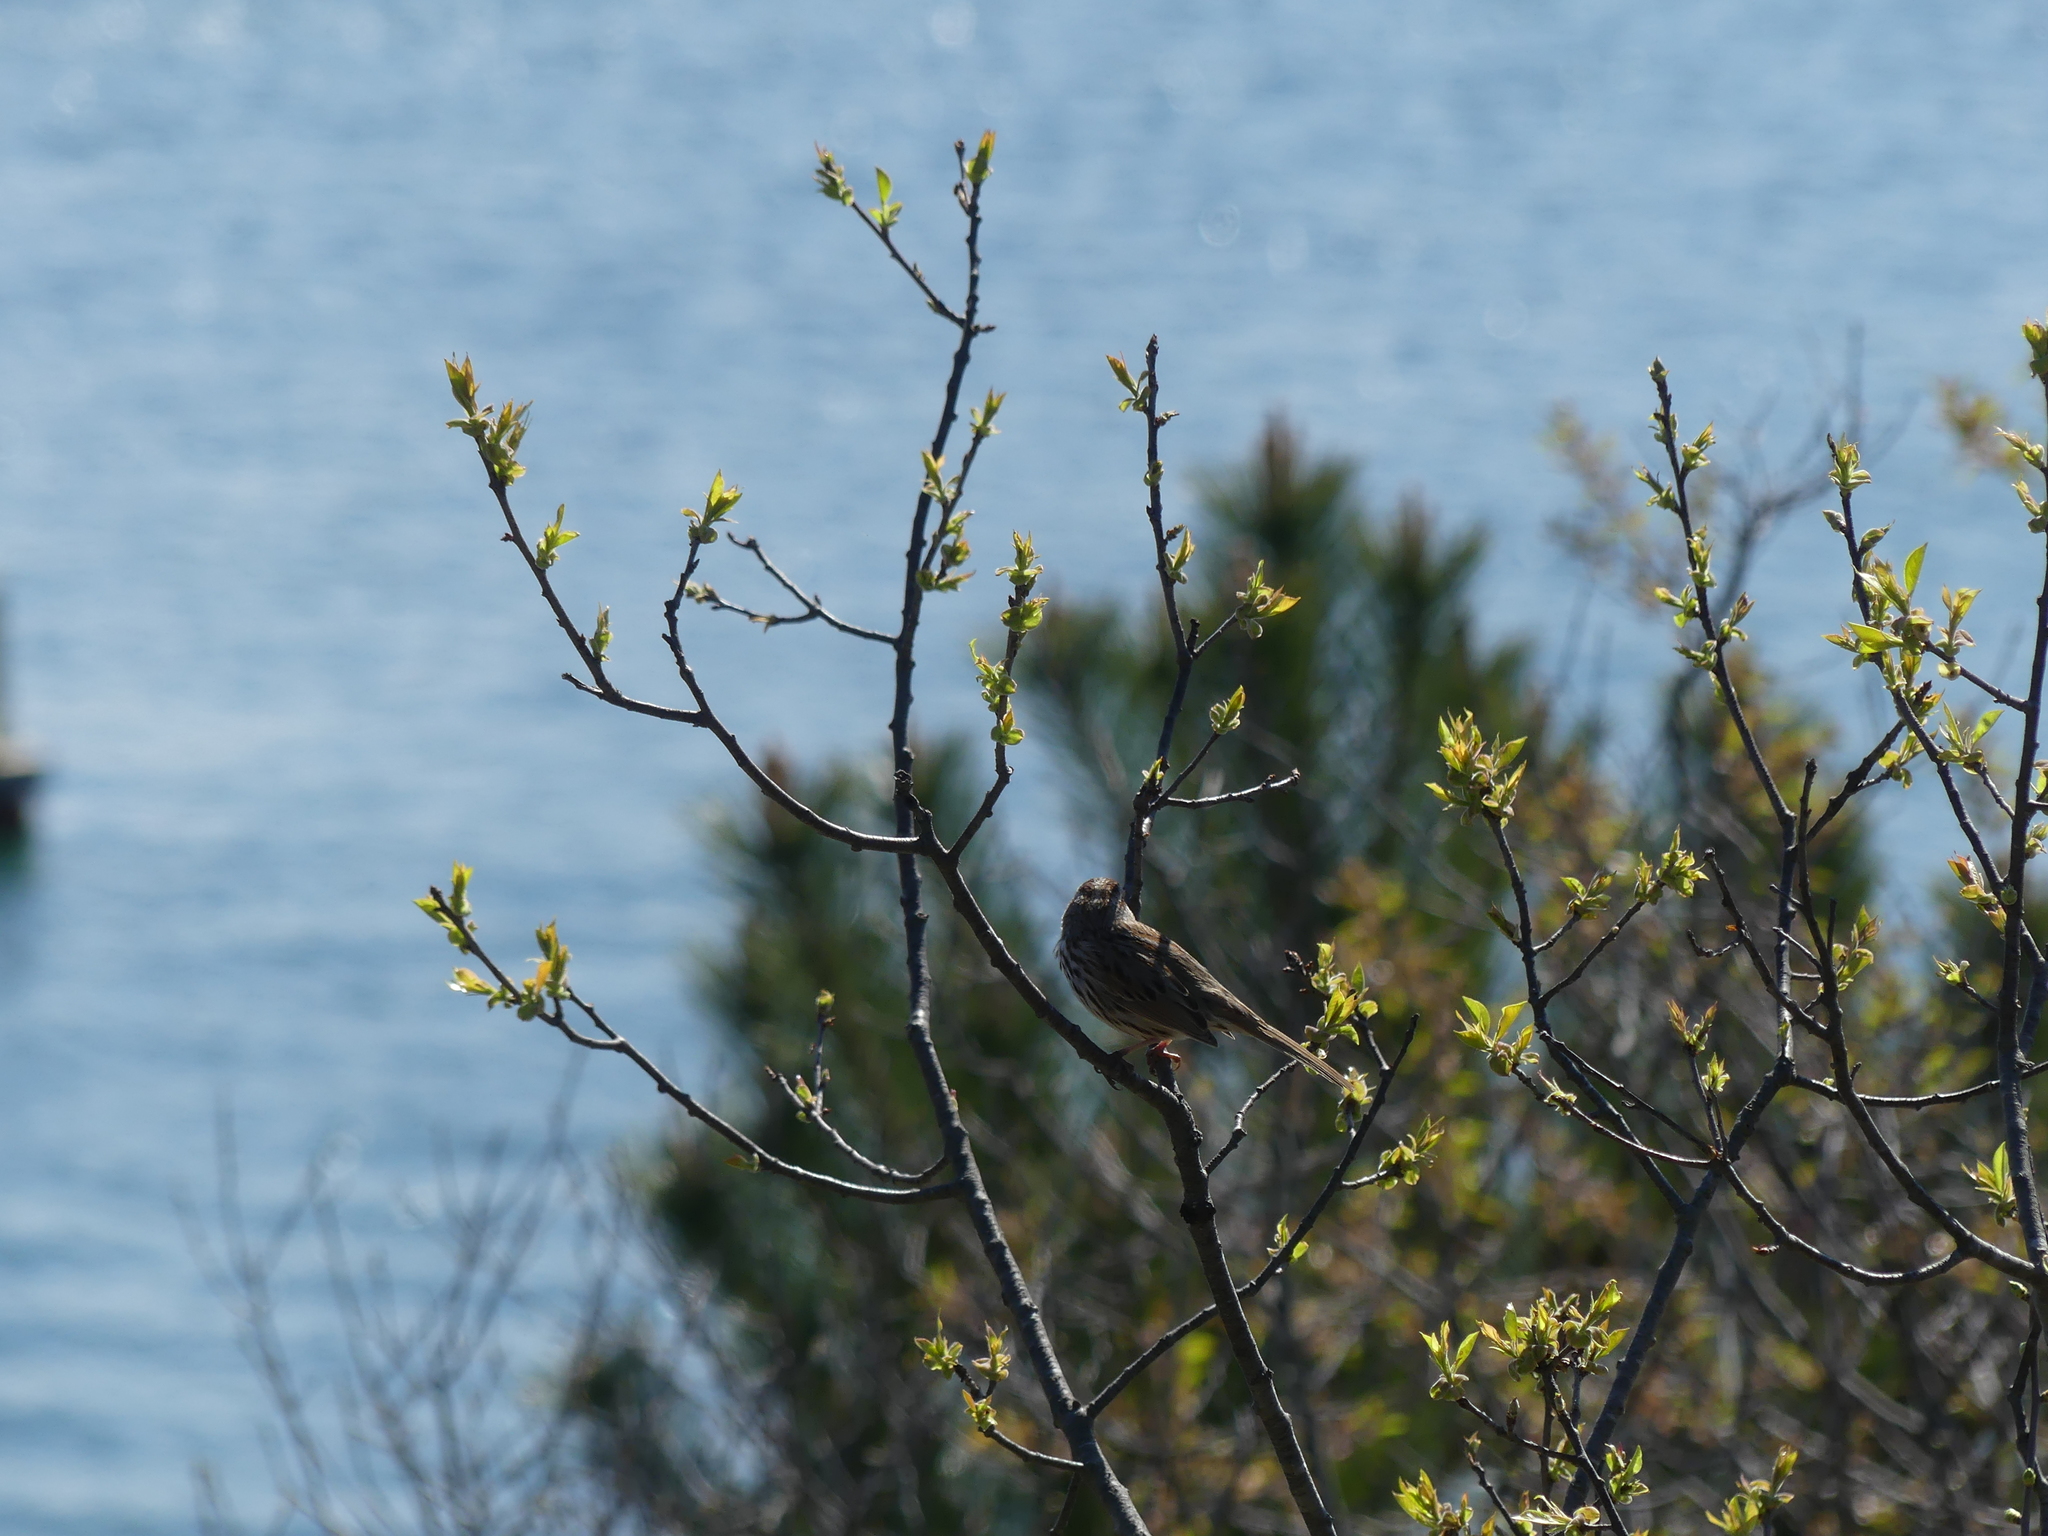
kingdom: Animalia
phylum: Chordata
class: Aves
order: Passeriformes
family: Passerellidae
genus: Melospiza
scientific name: Melospiza melodia
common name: Song sparrow
